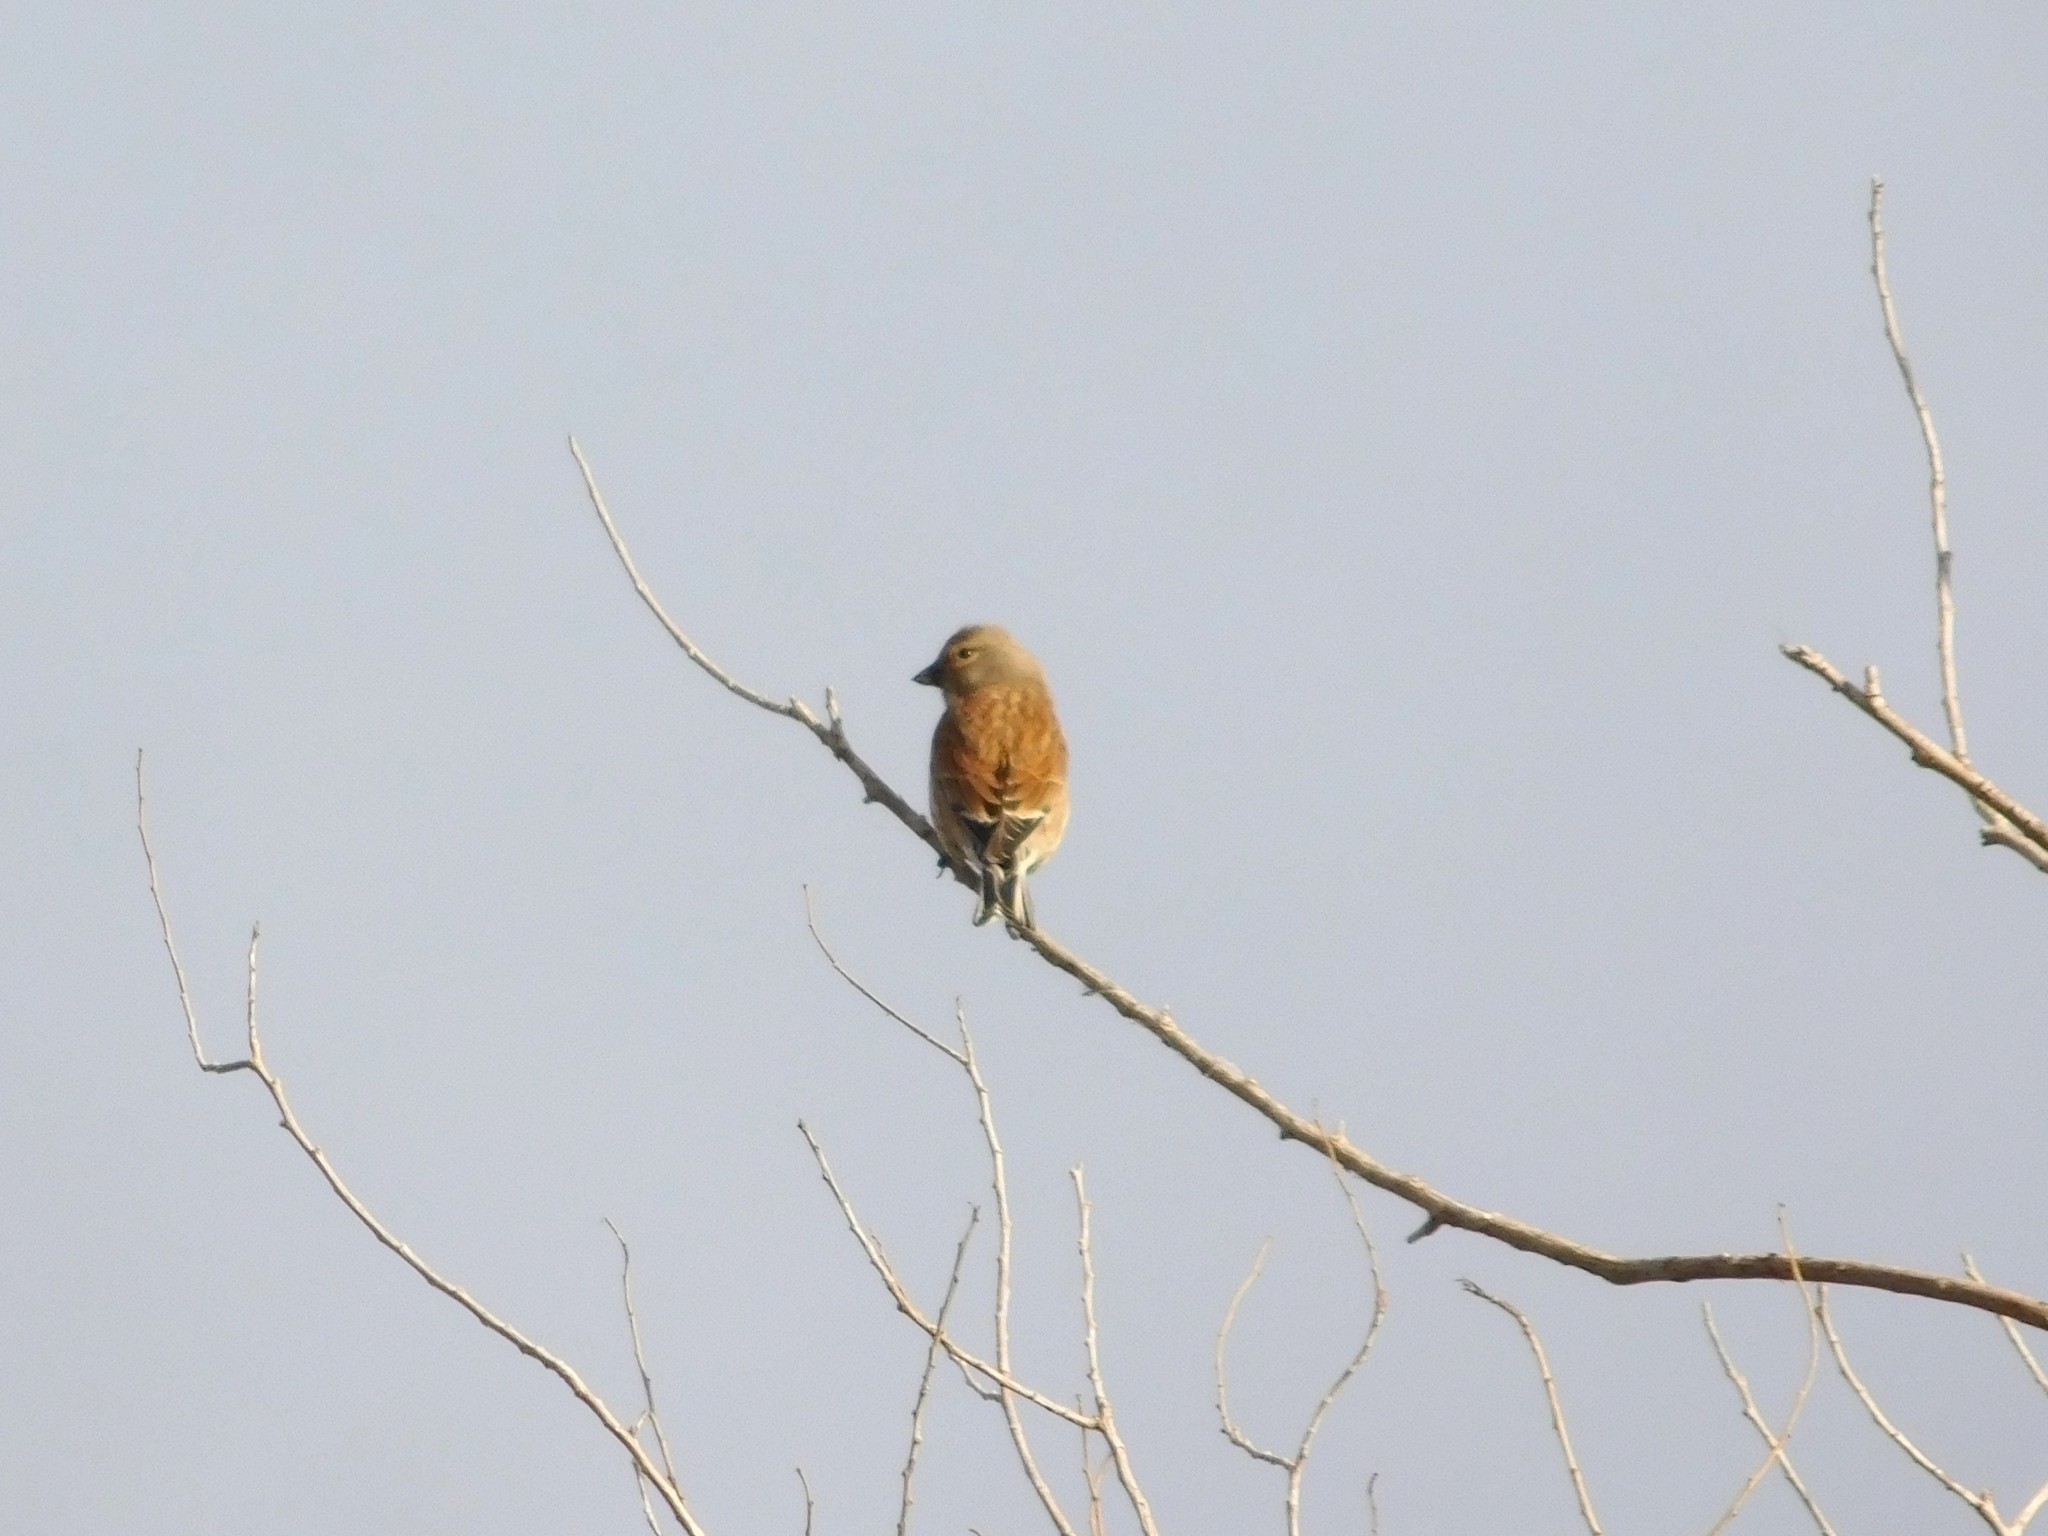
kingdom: Animalia
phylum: Chordata
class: Aves
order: Passeriformes
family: Fringillidae
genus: Linaria
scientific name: Linaria cannabina
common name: Common linnet
